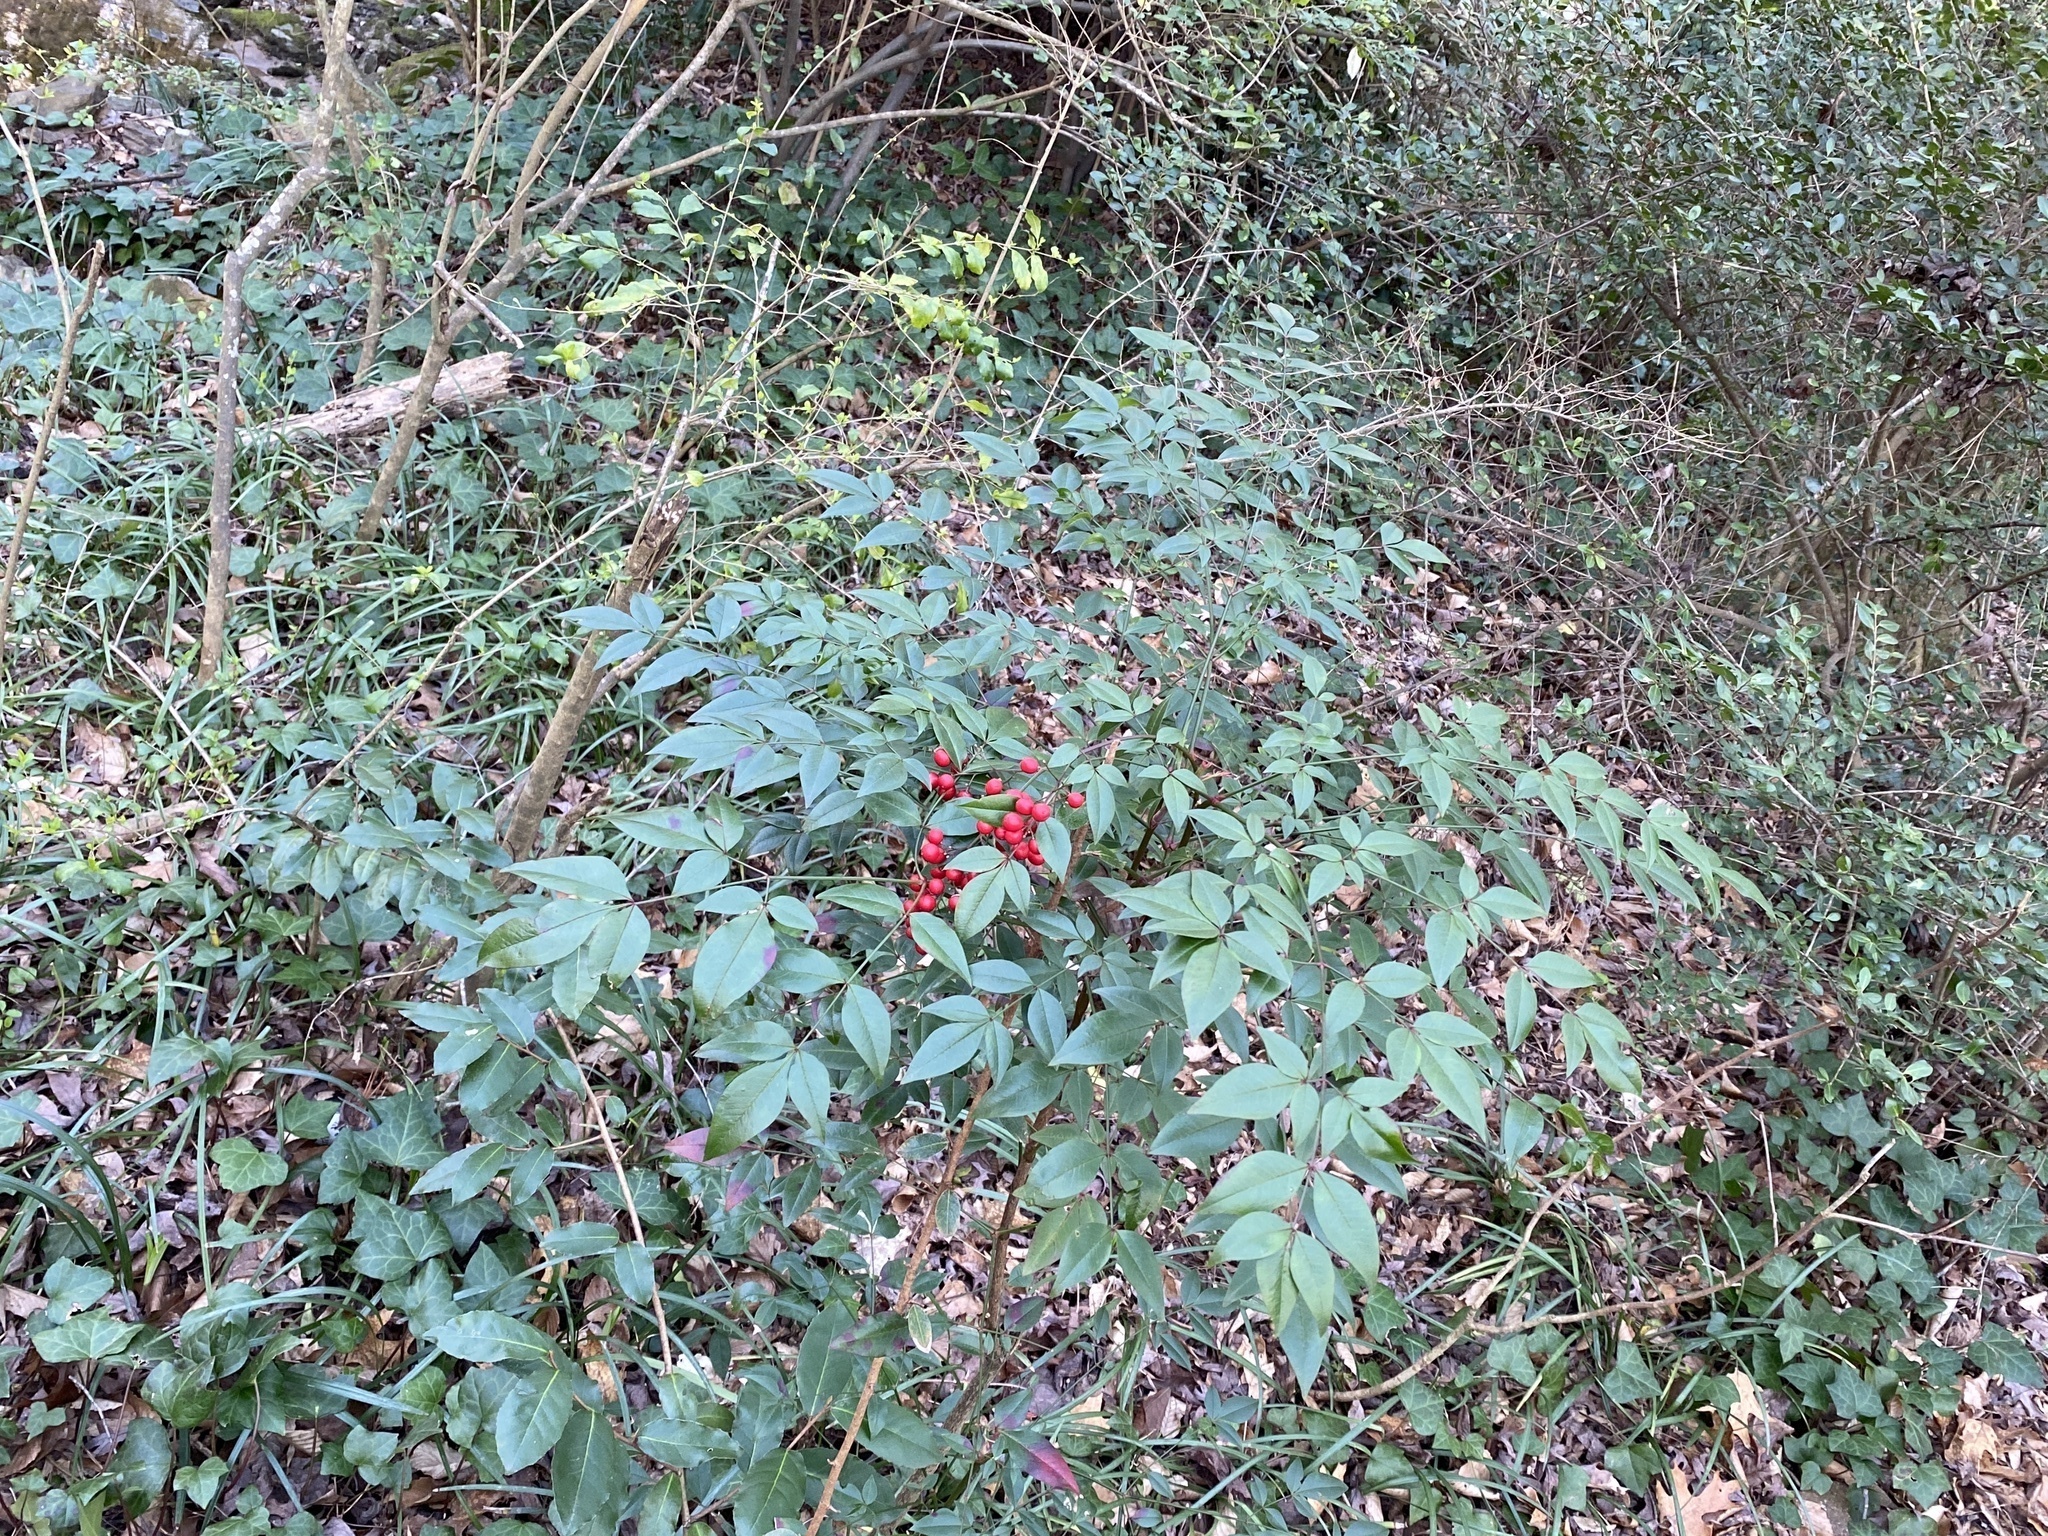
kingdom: Plantae
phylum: Tracheophyta
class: Magnoliopsida
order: Ranunculales
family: Berberidaceae
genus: Nandina
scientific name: Nandina domestica
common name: Sacred bamboo
